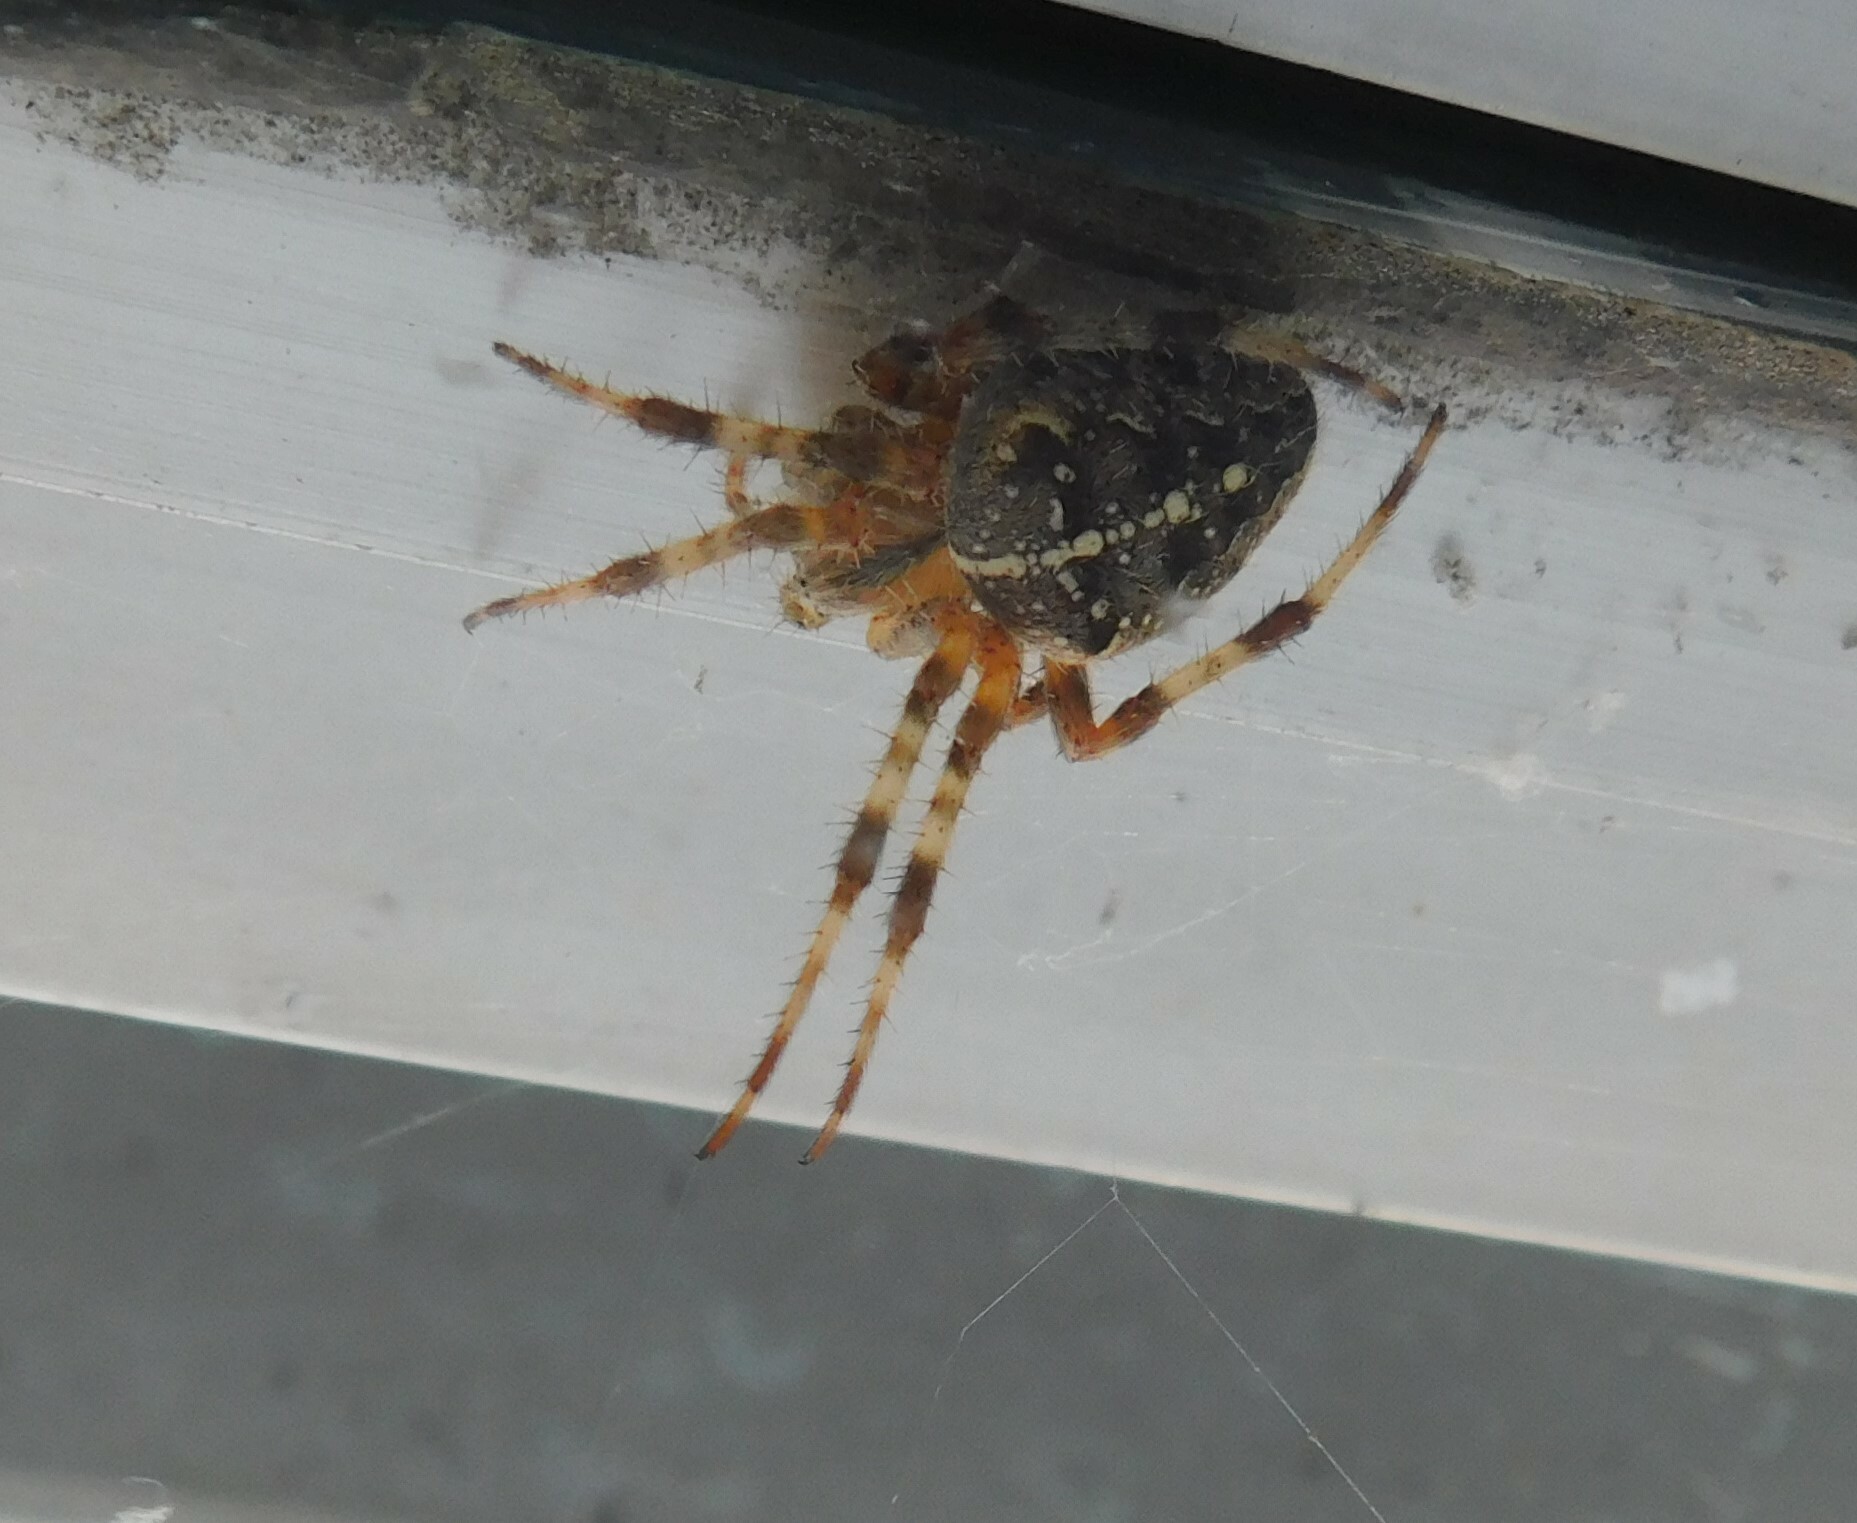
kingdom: Animalia
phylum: Arthropoda
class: Arachnida
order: Araneae
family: Araneidae
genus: Araneus
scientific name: Araneus diadematus
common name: Cross orbweaver
